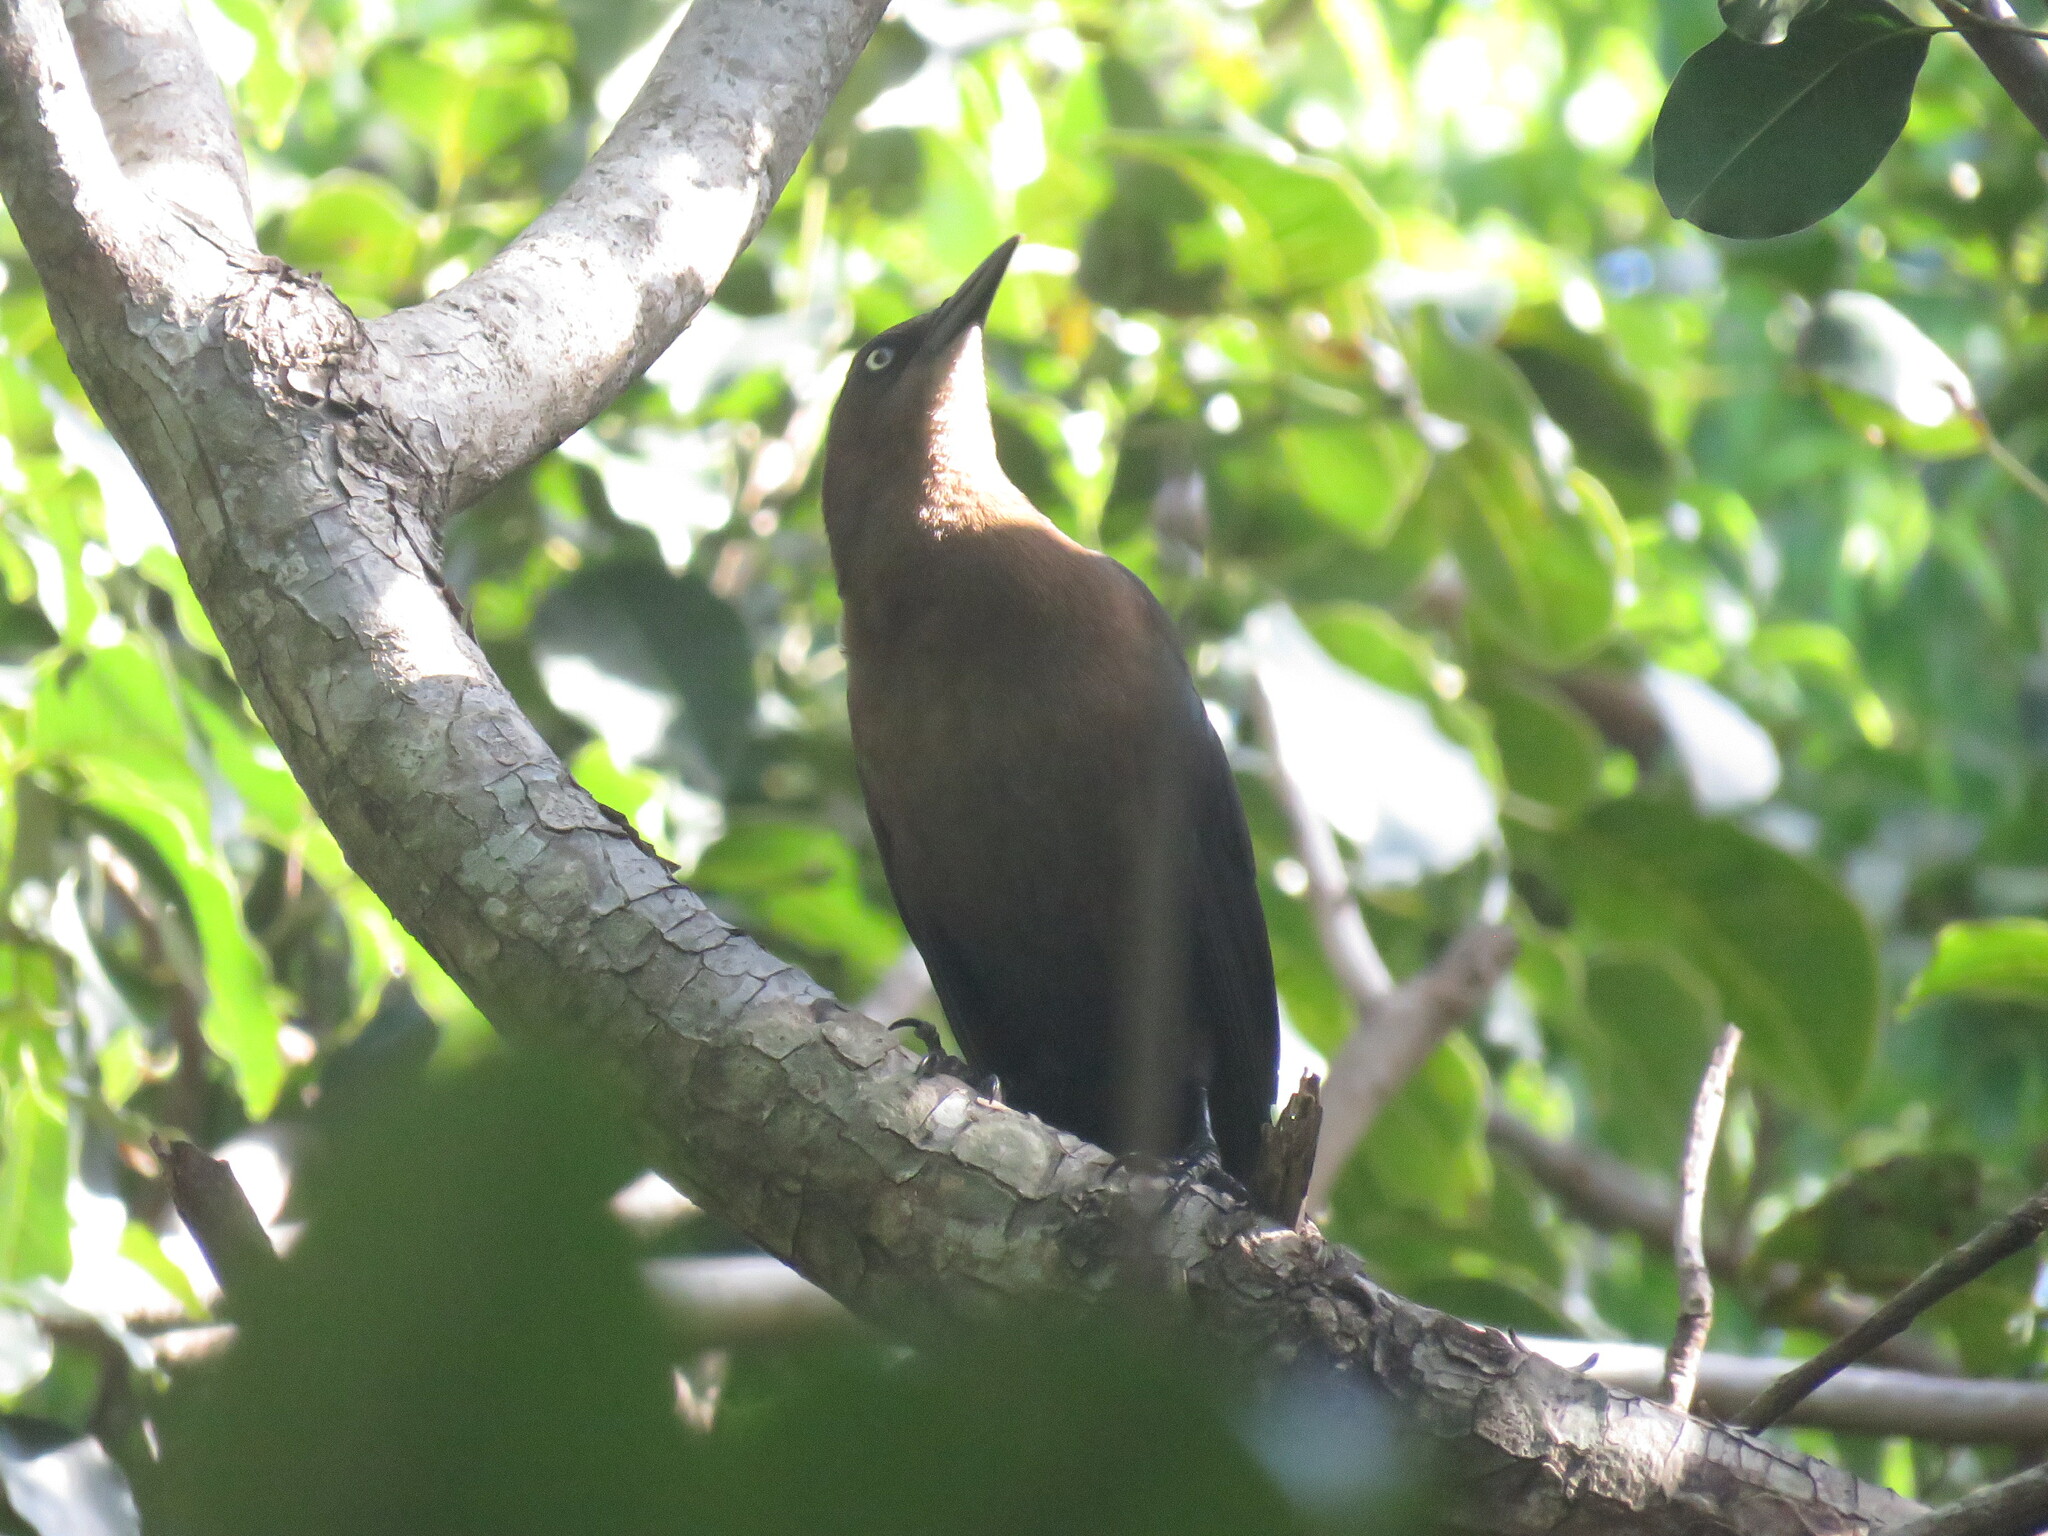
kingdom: Animalia
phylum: Chordata
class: Aves
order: Passeriformes
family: Icteridae
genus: Quiscalus
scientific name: Quiscalus mexicanus
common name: Great-tailed grackle
